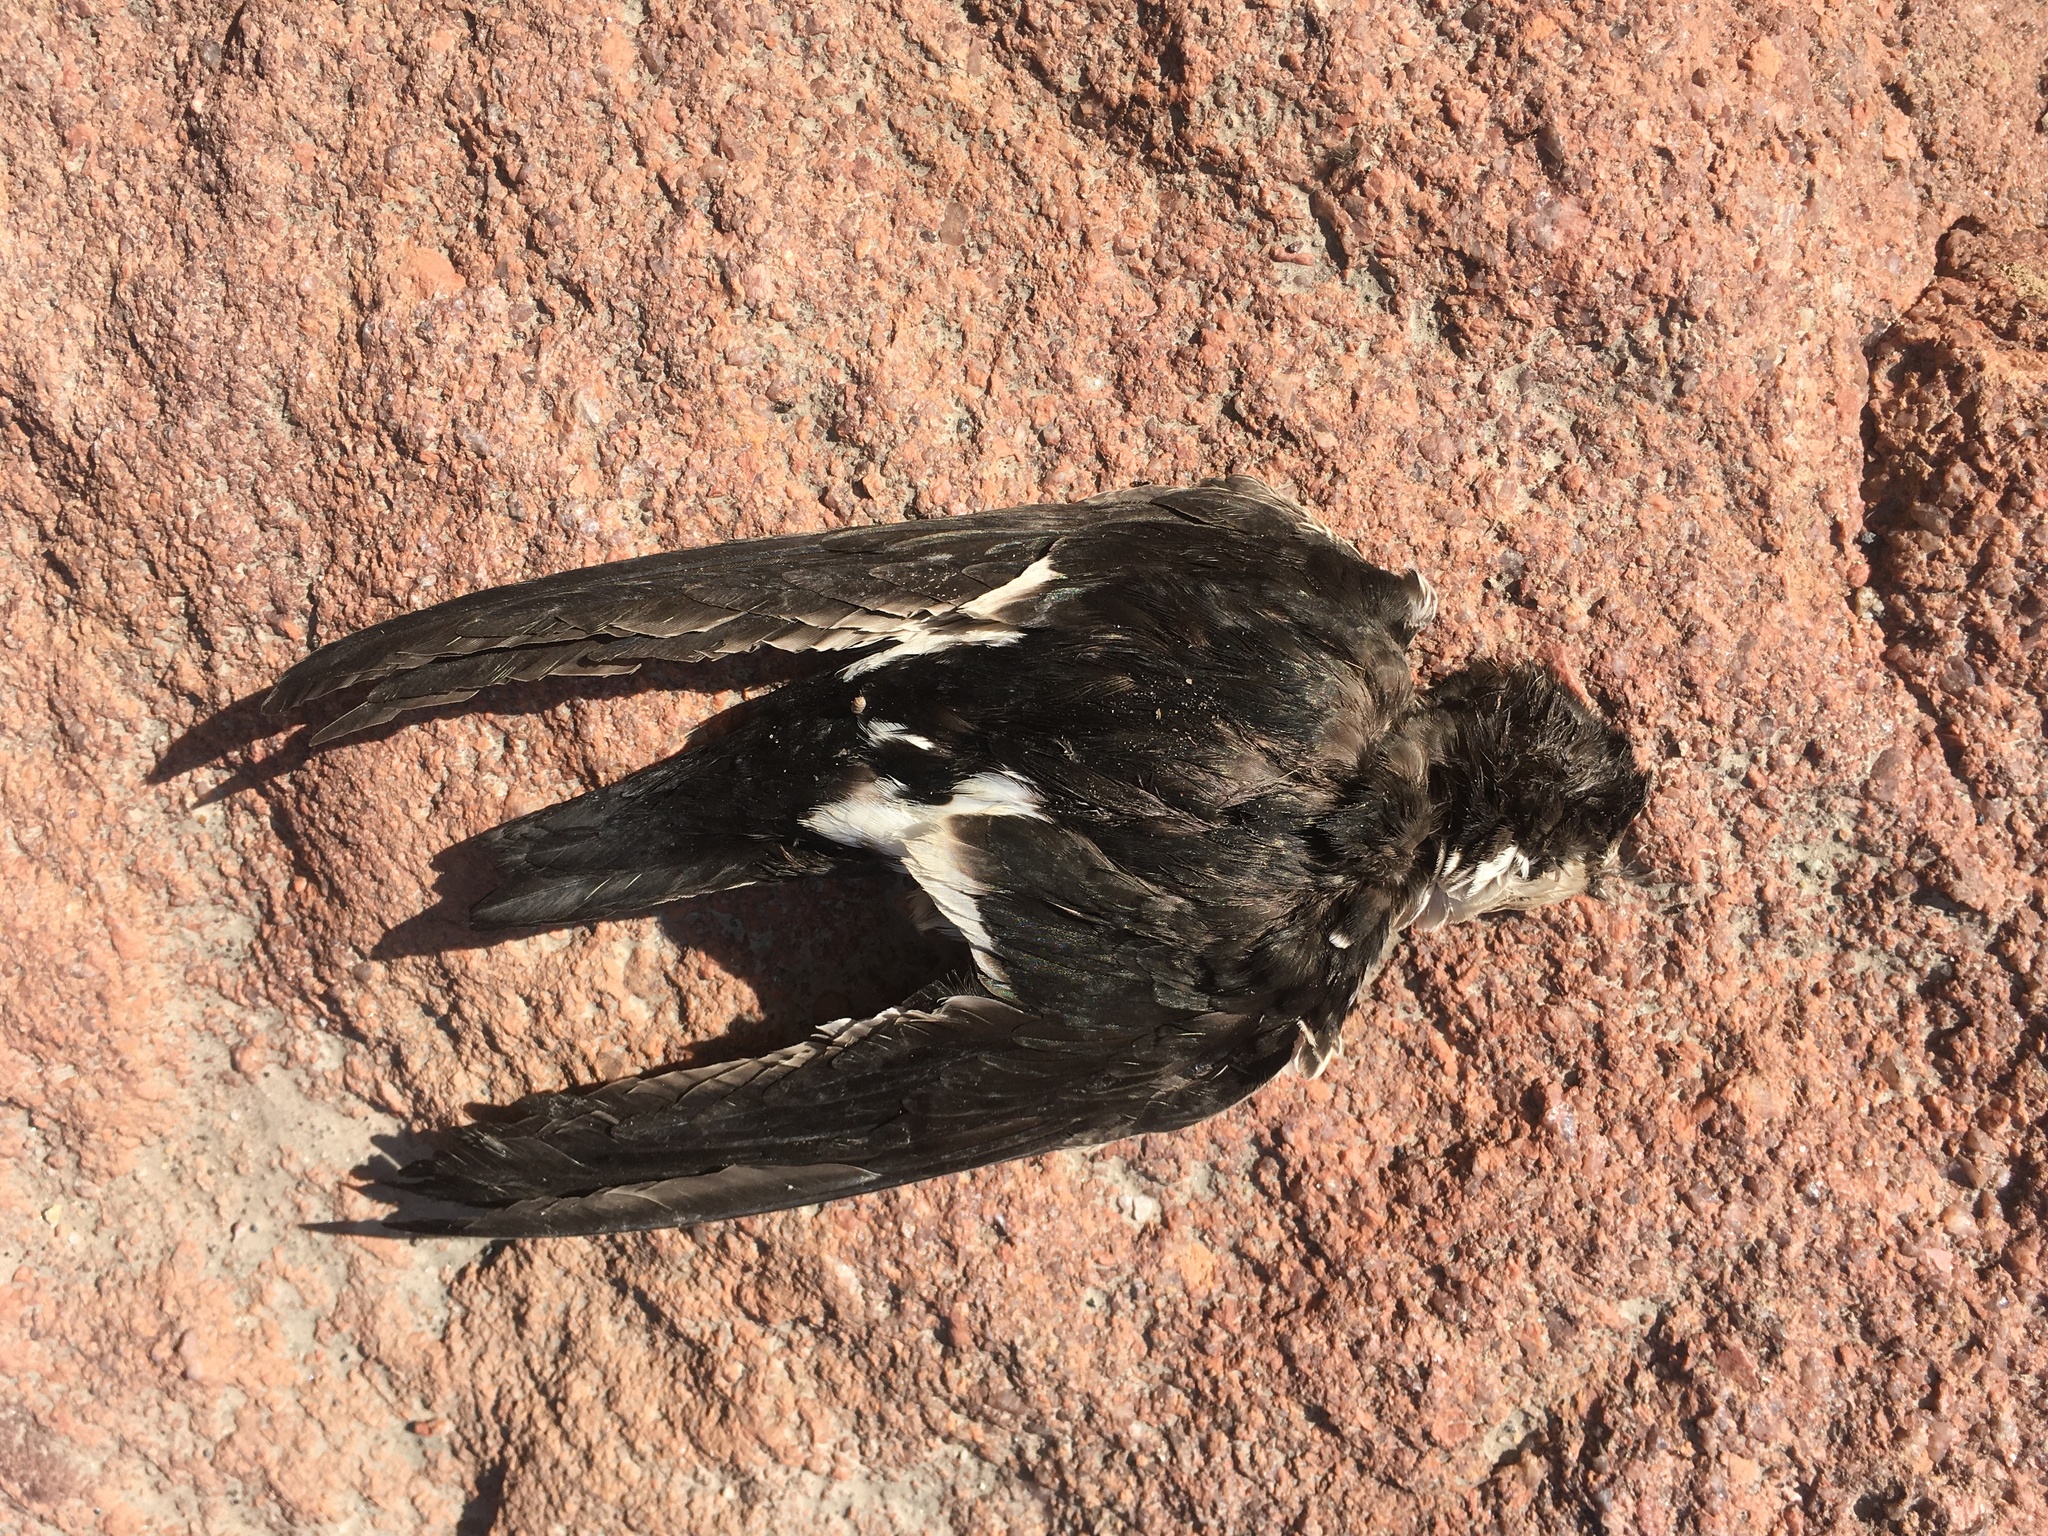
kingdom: Animalia
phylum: Chordata
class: Aves
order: Apodiformes
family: Apodidae
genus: Aeronautes
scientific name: Aeronautes saxatalis
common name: White-throated swift
